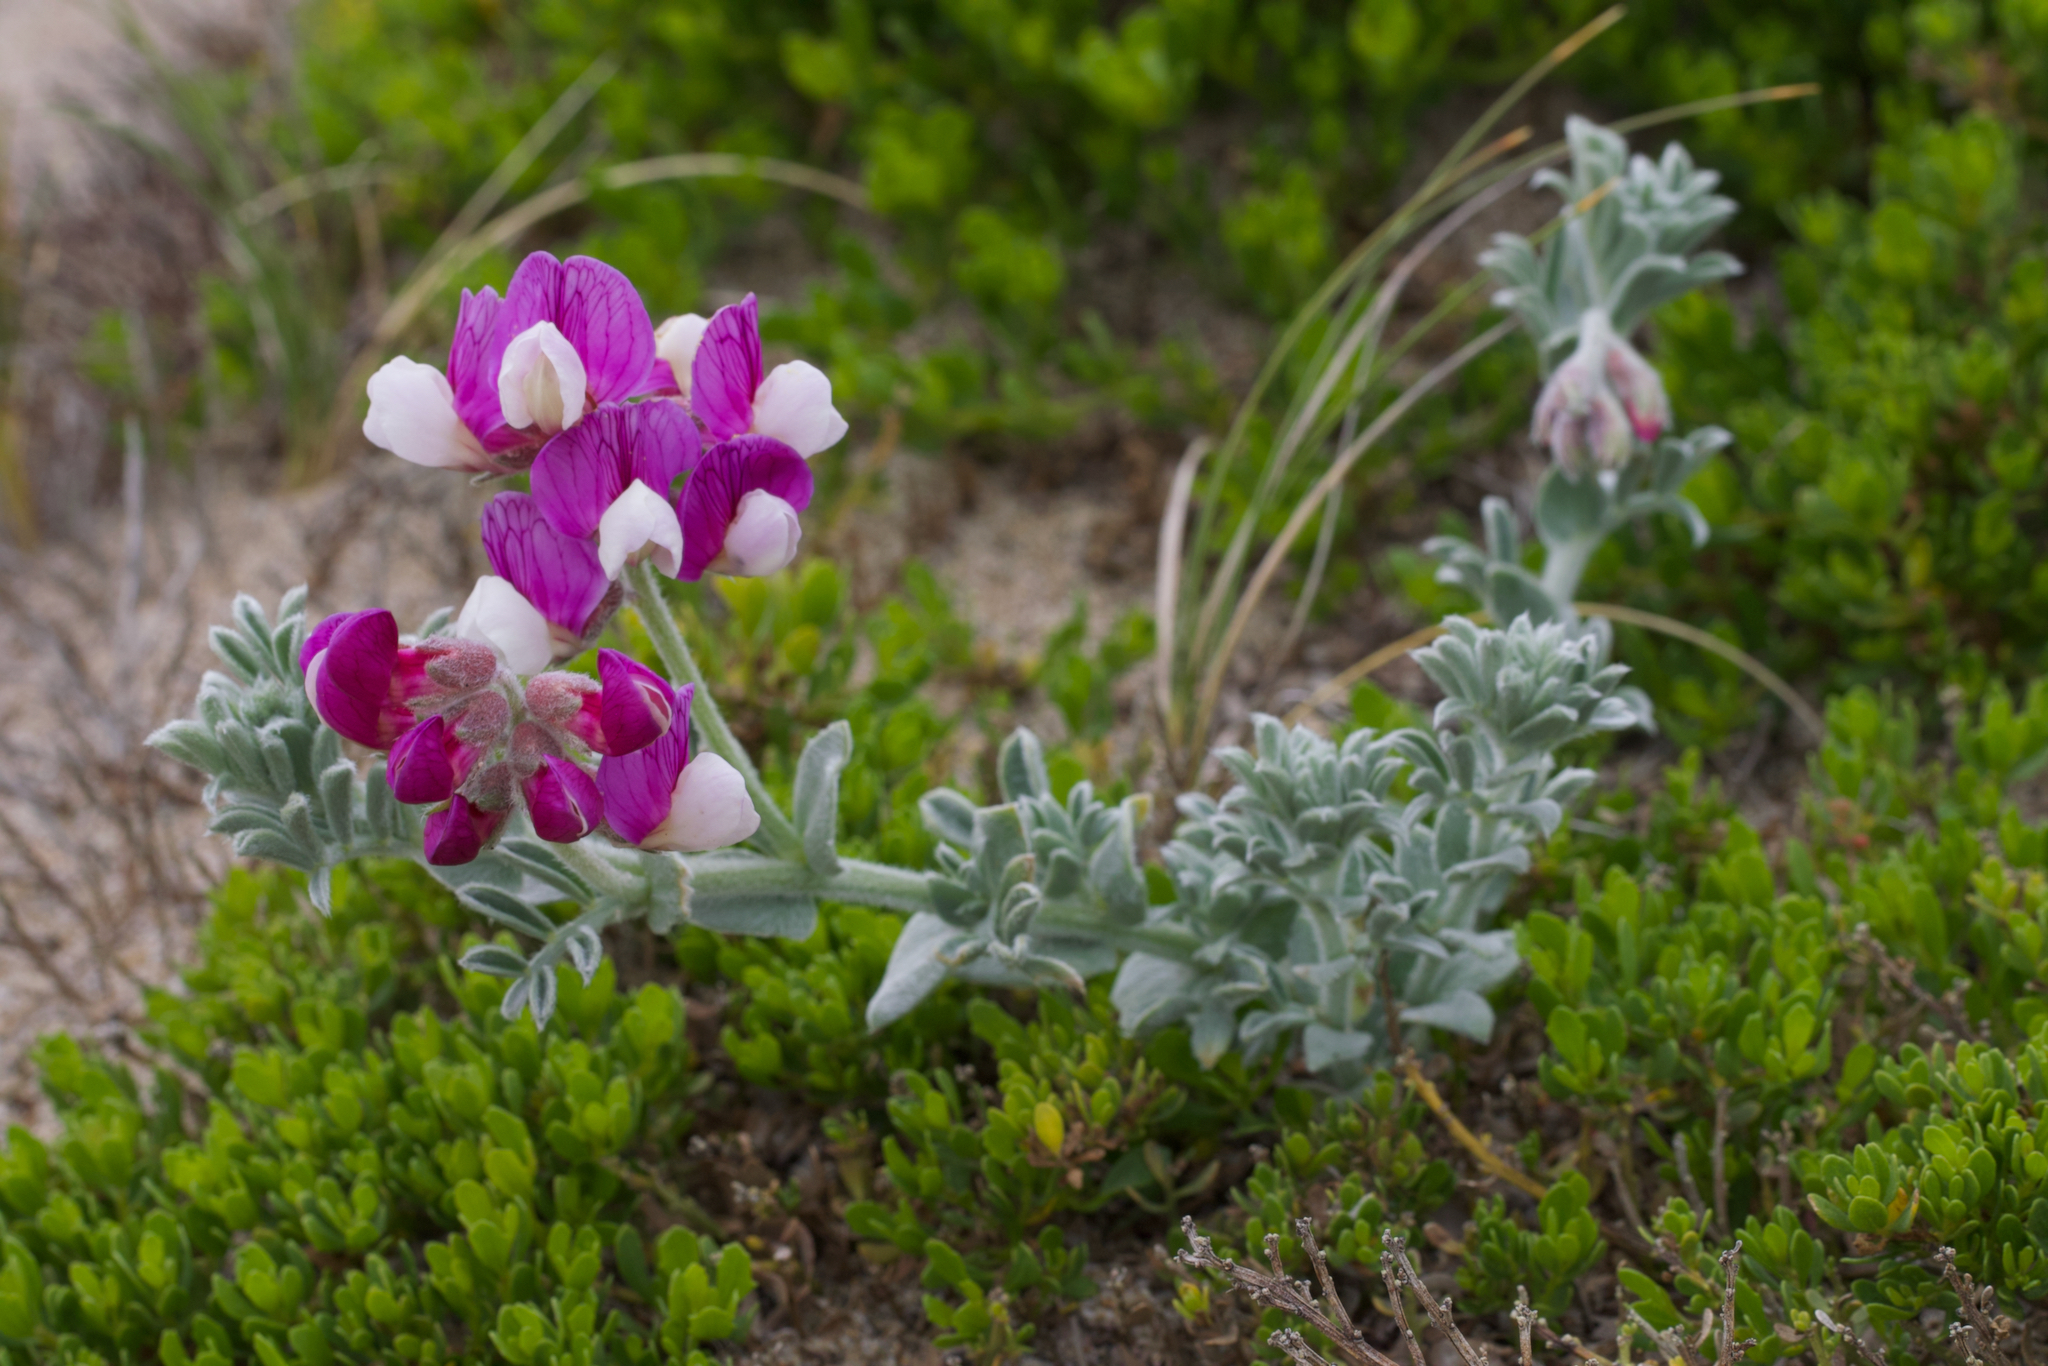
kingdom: Plantae
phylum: Tracheophyta
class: Magnoliopsida
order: Fabales
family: Fabaceae
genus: Lathyrus
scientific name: Lathyrus littoralis
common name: Dune sweet pea
